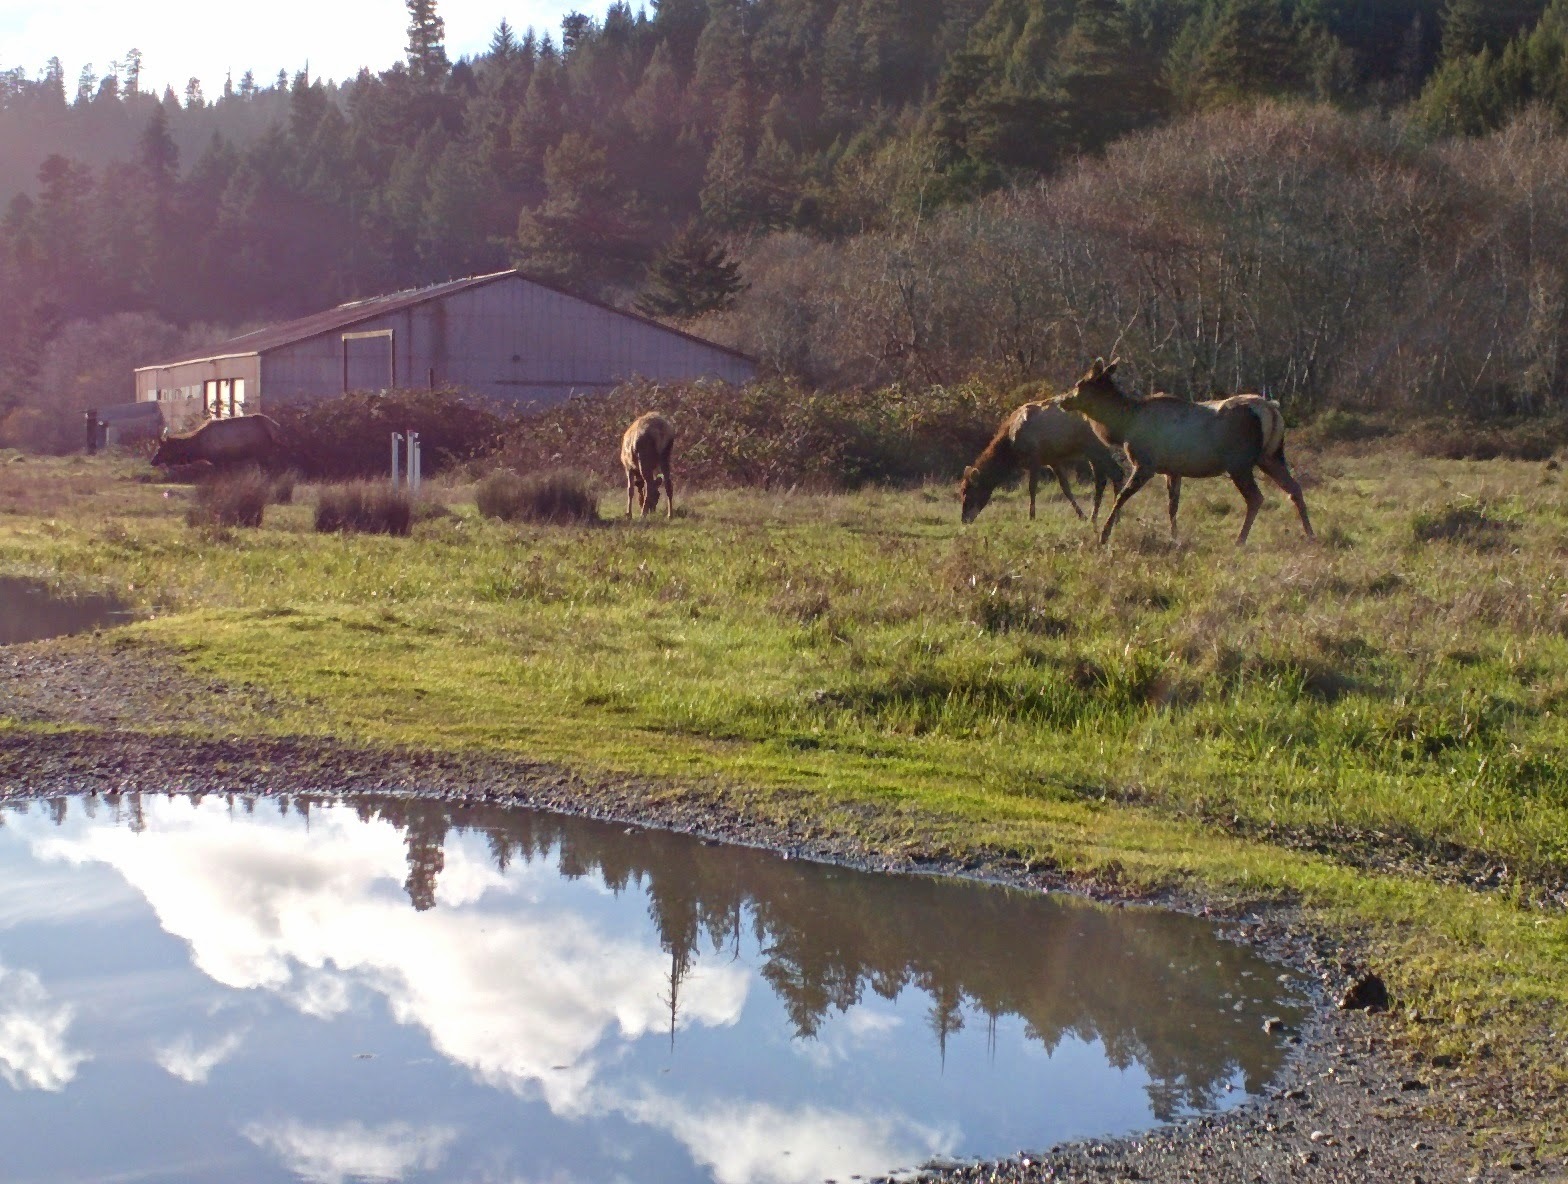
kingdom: Animalia
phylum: Chordata
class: Mammalia
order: Artiodactyla
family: Cervidae
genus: Cervus
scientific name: Cervus elaphus
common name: Red deer
